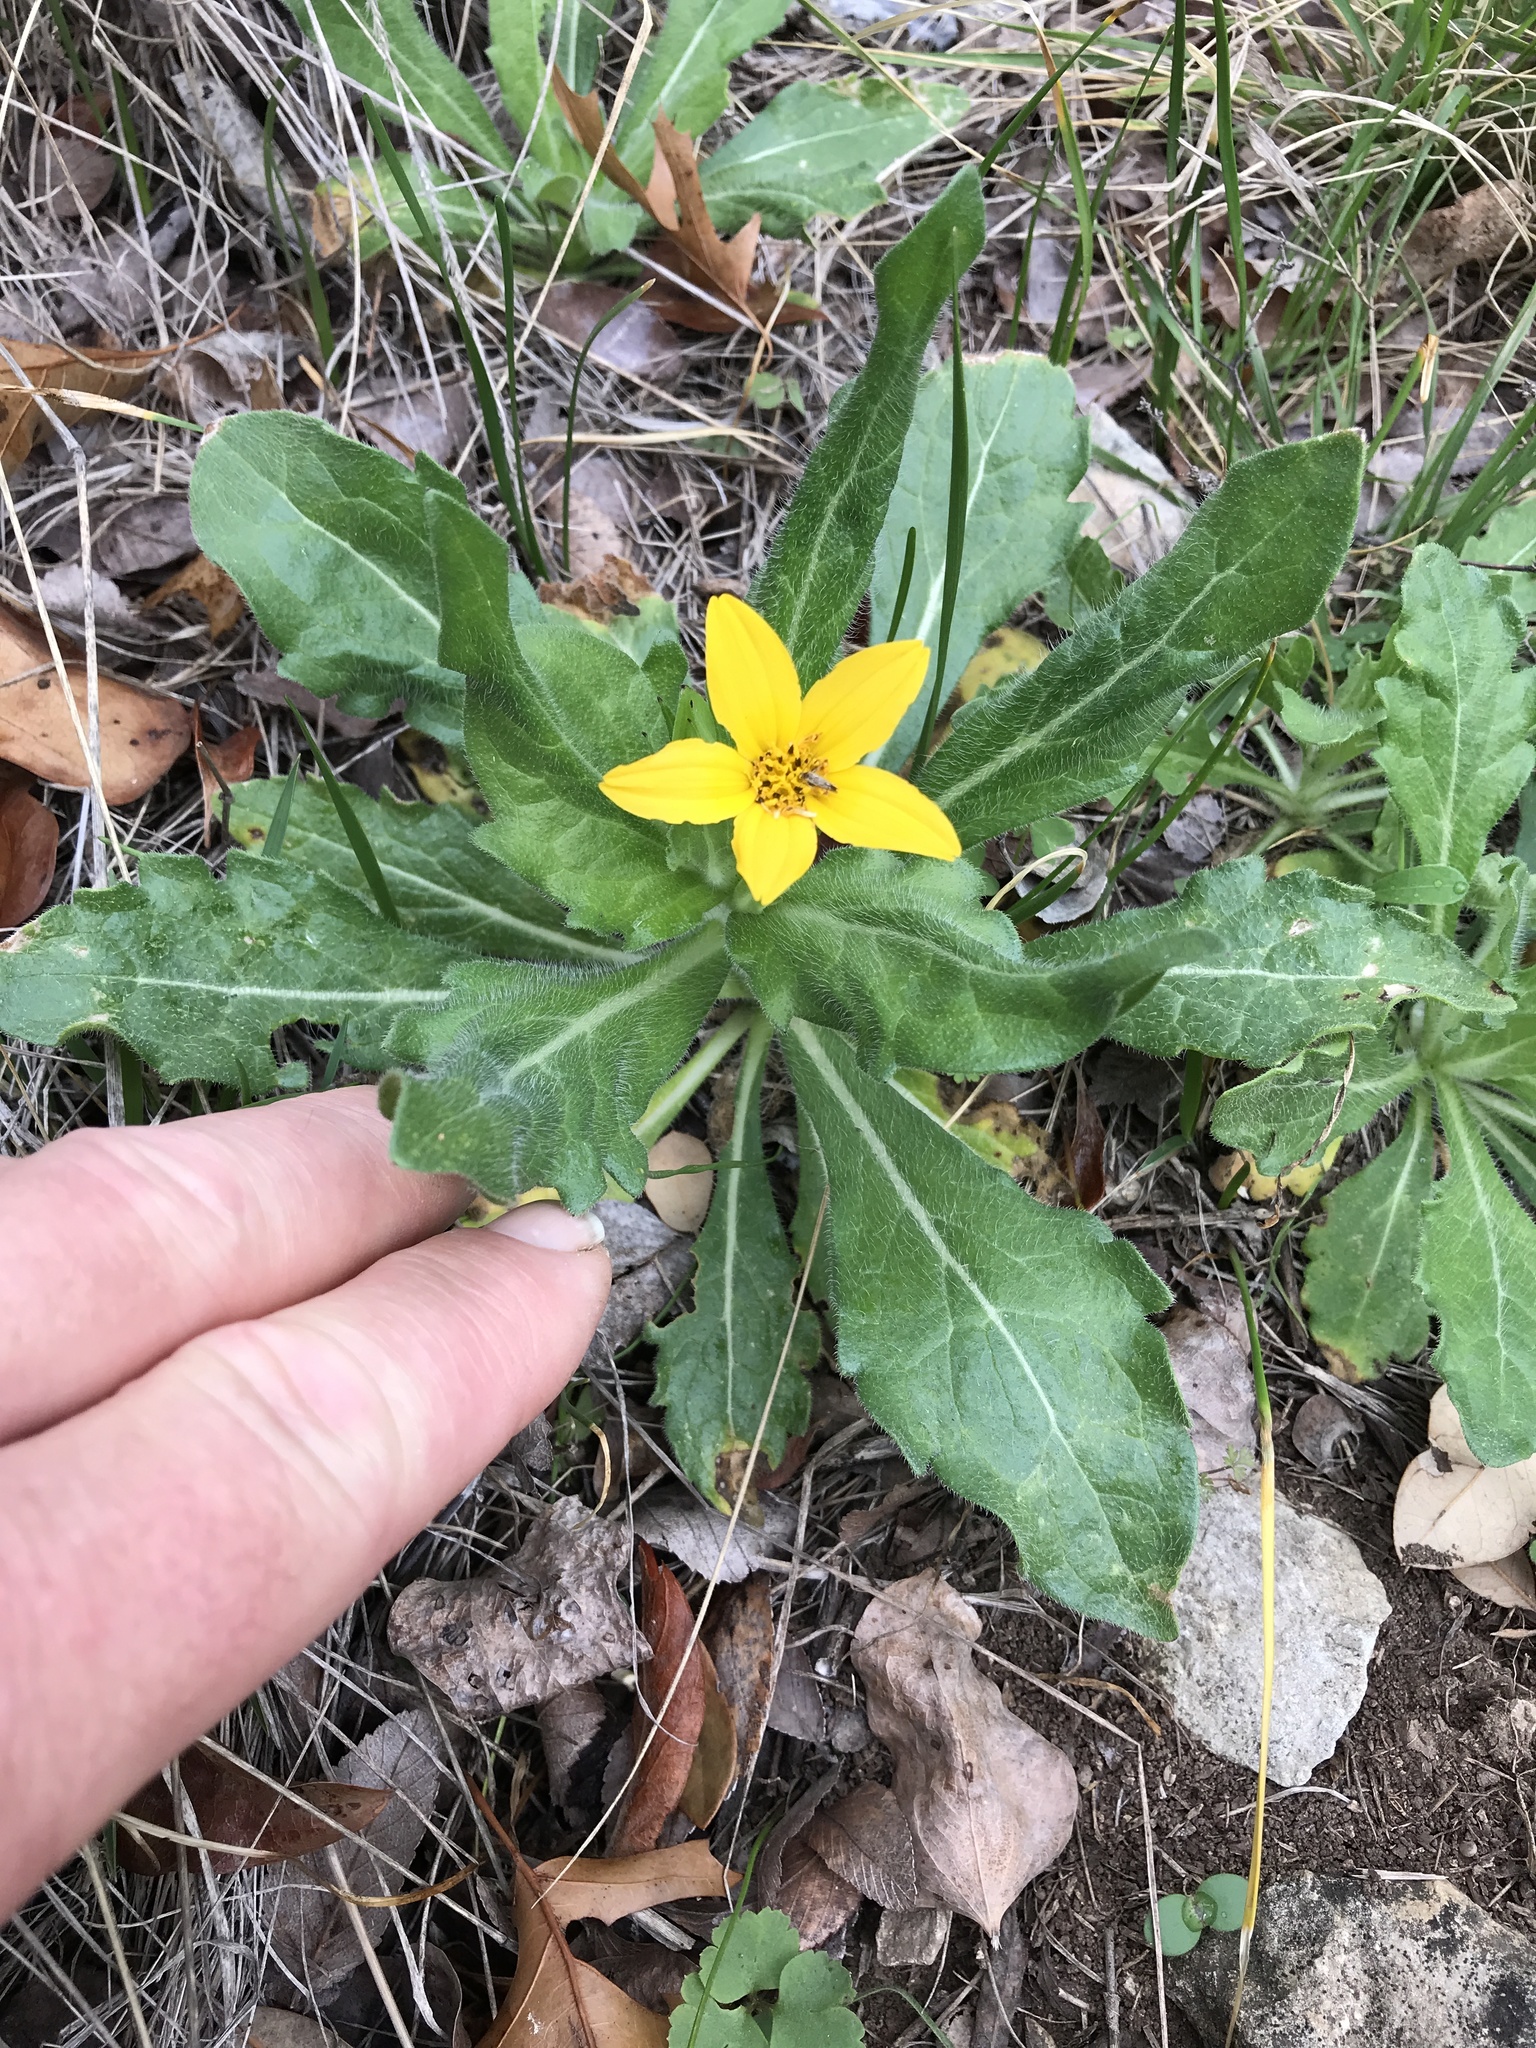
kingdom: Plantae
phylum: Tracheophyta
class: Magnoliopsida
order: Asterales
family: Asteraceae
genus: Lindheimera
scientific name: Lindheimera texana
